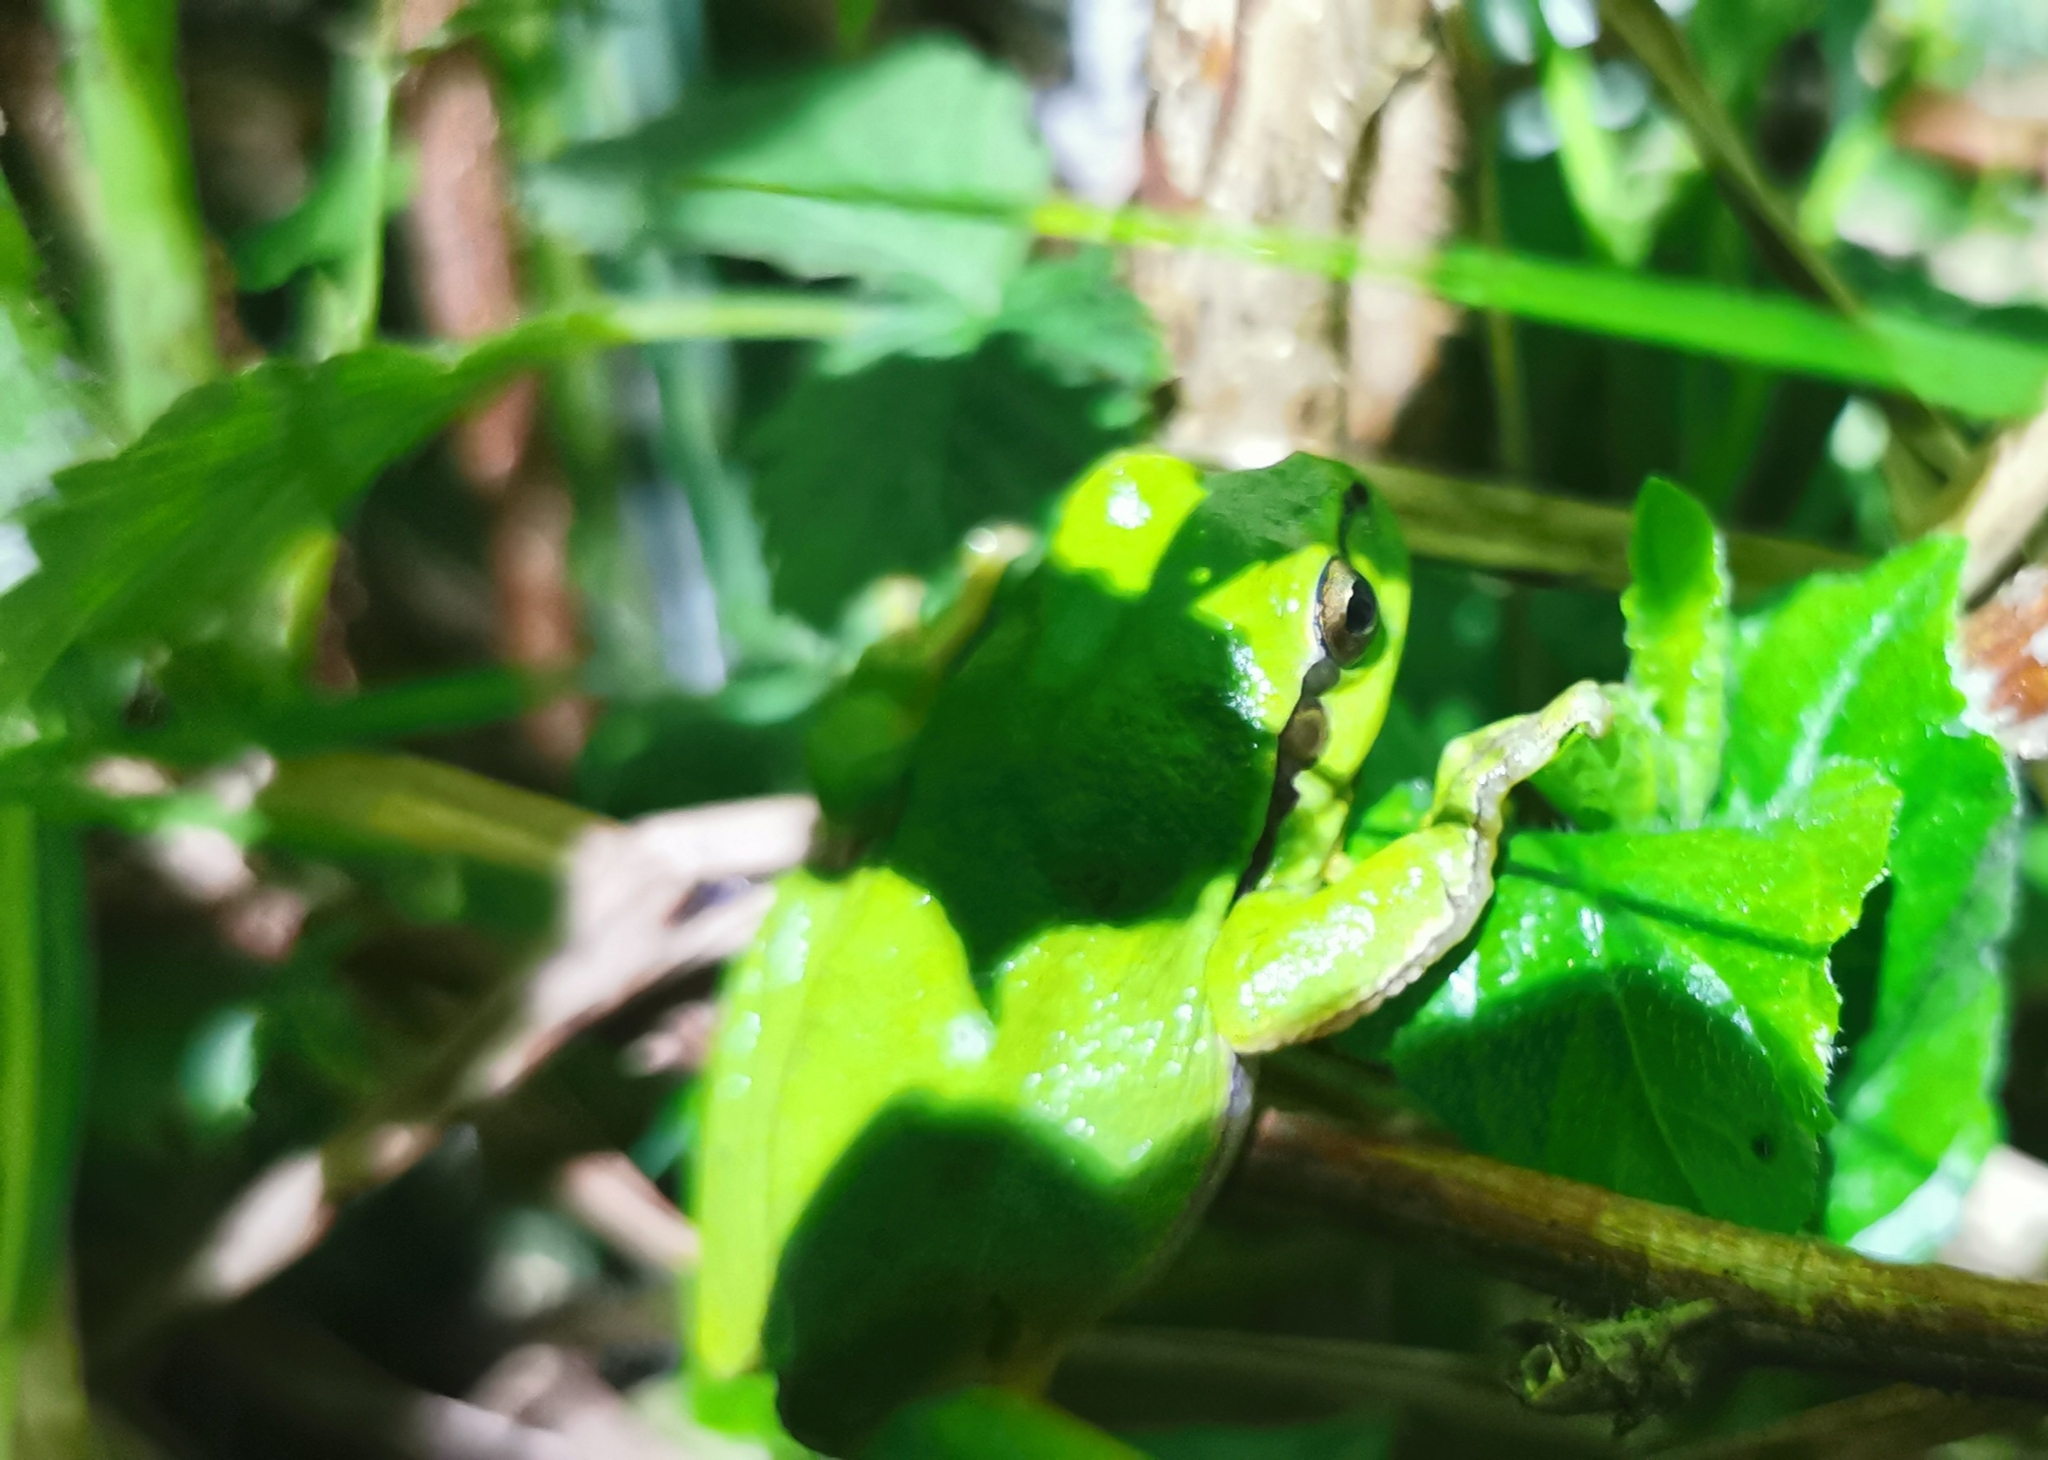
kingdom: Animalia
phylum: Chordata
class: Amphibia
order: Anura
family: Hylidae
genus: Hyla
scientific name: Hyla arborea
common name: Common tree frog
